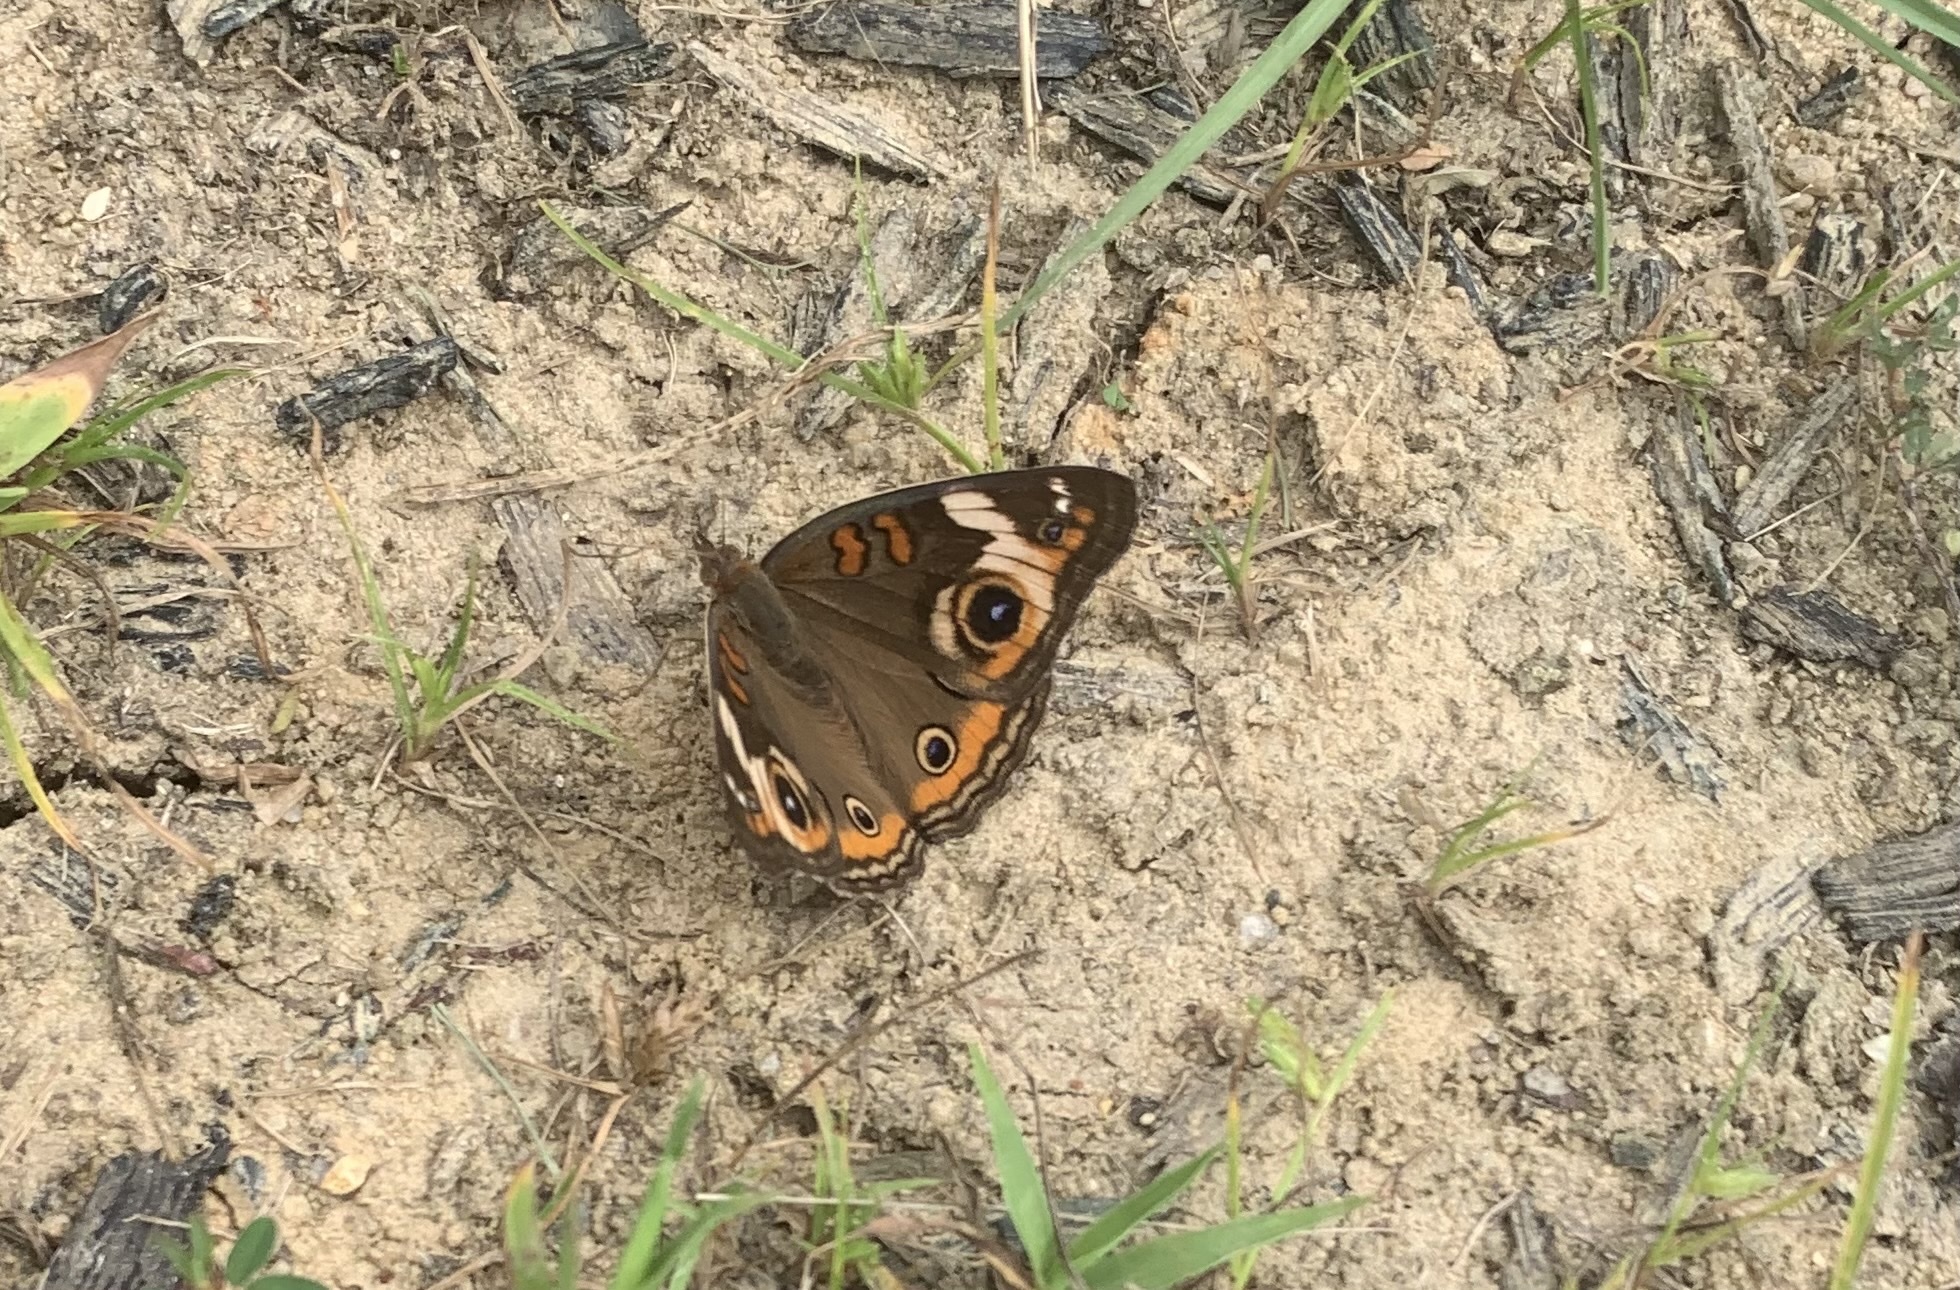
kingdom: Animalia
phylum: Arthropoda
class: Insecta
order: Lepidoptera
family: Nymphalidae
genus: Junonia
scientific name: Junonia coenia
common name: Common buckeye
